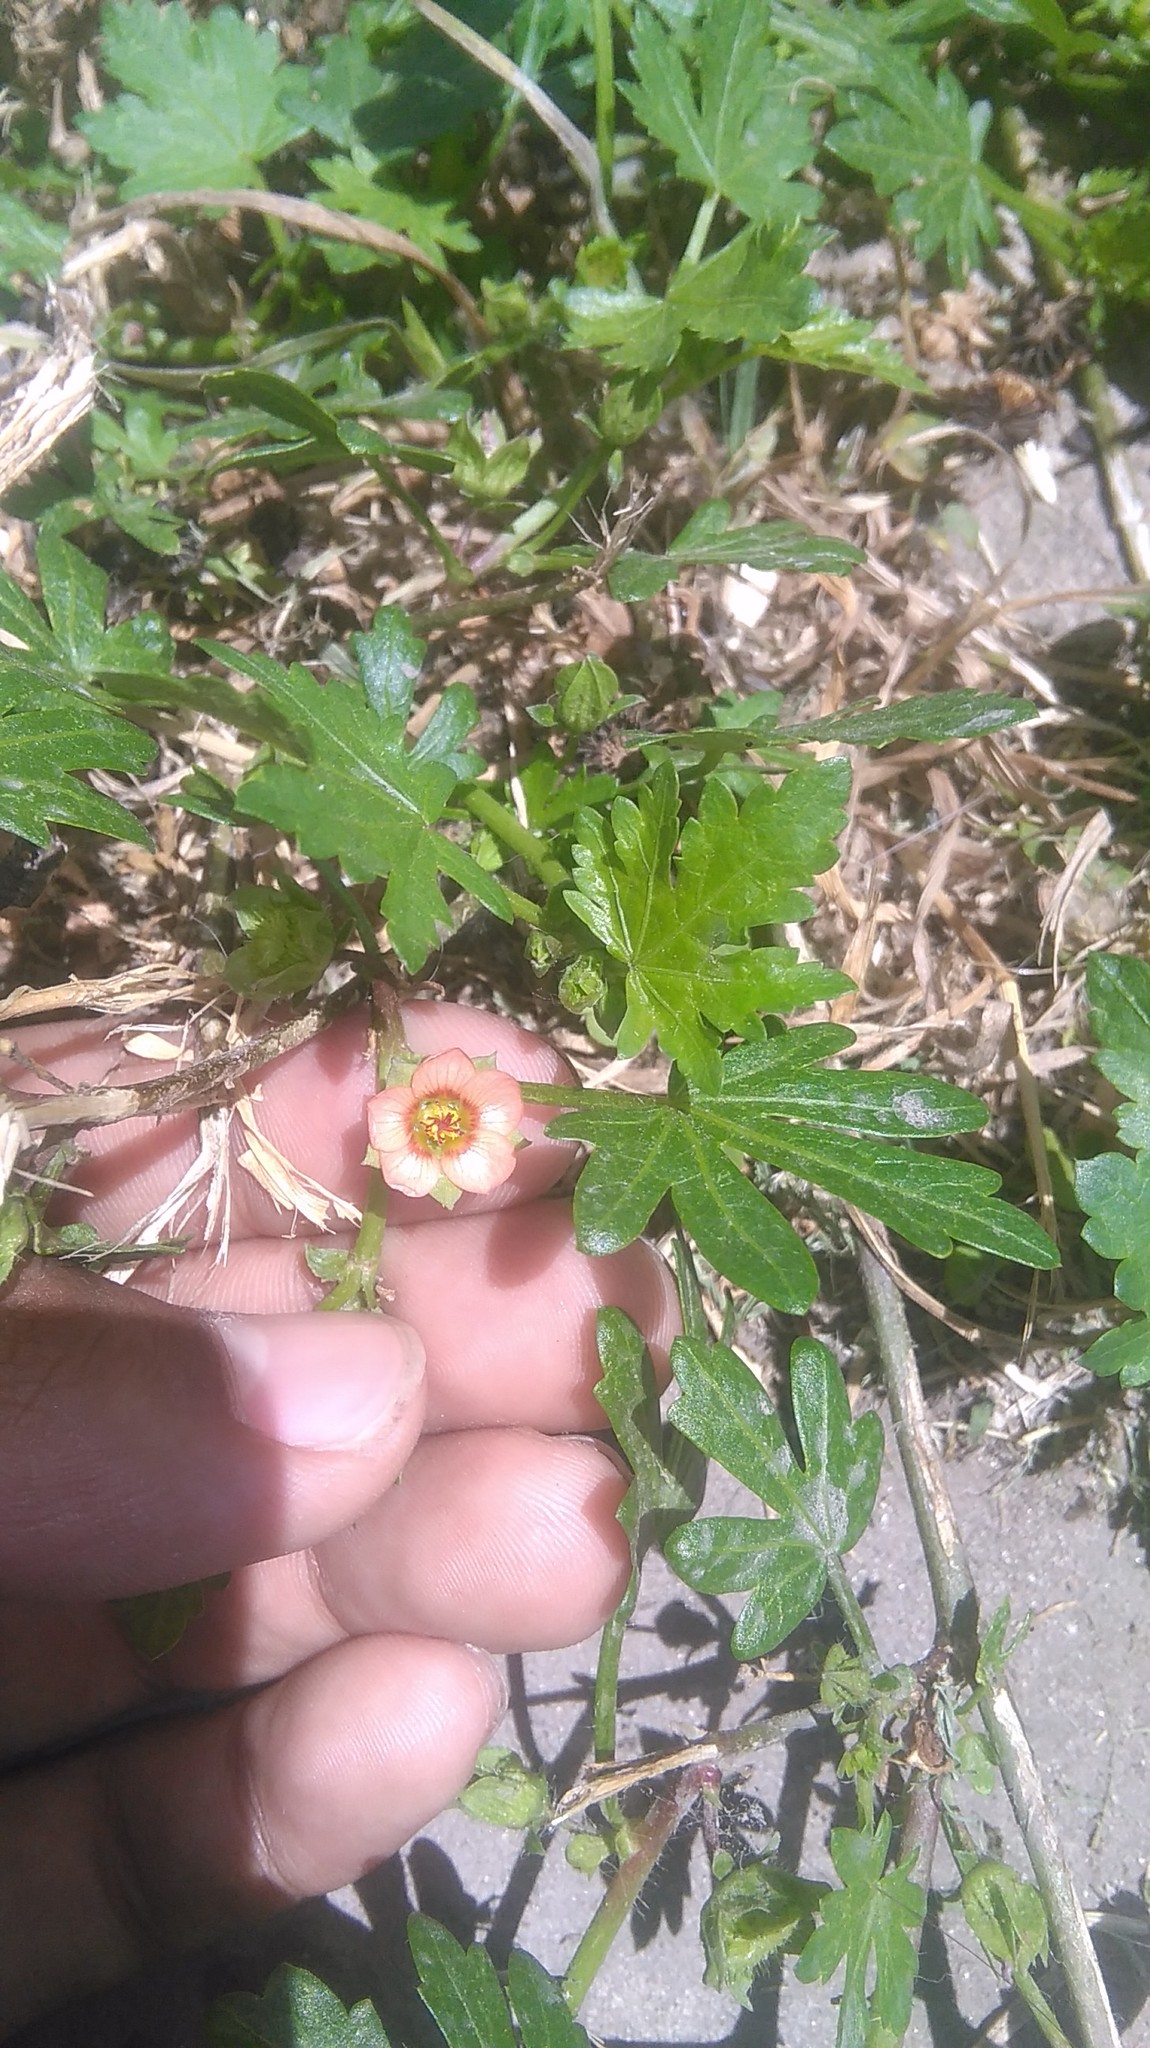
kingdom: Plantae
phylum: Tracheophyta
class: Magnoliopsida
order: Malvales
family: Malvaceae
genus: Modiola
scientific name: Modiola caroliniana
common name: Carolina bristlemallow
